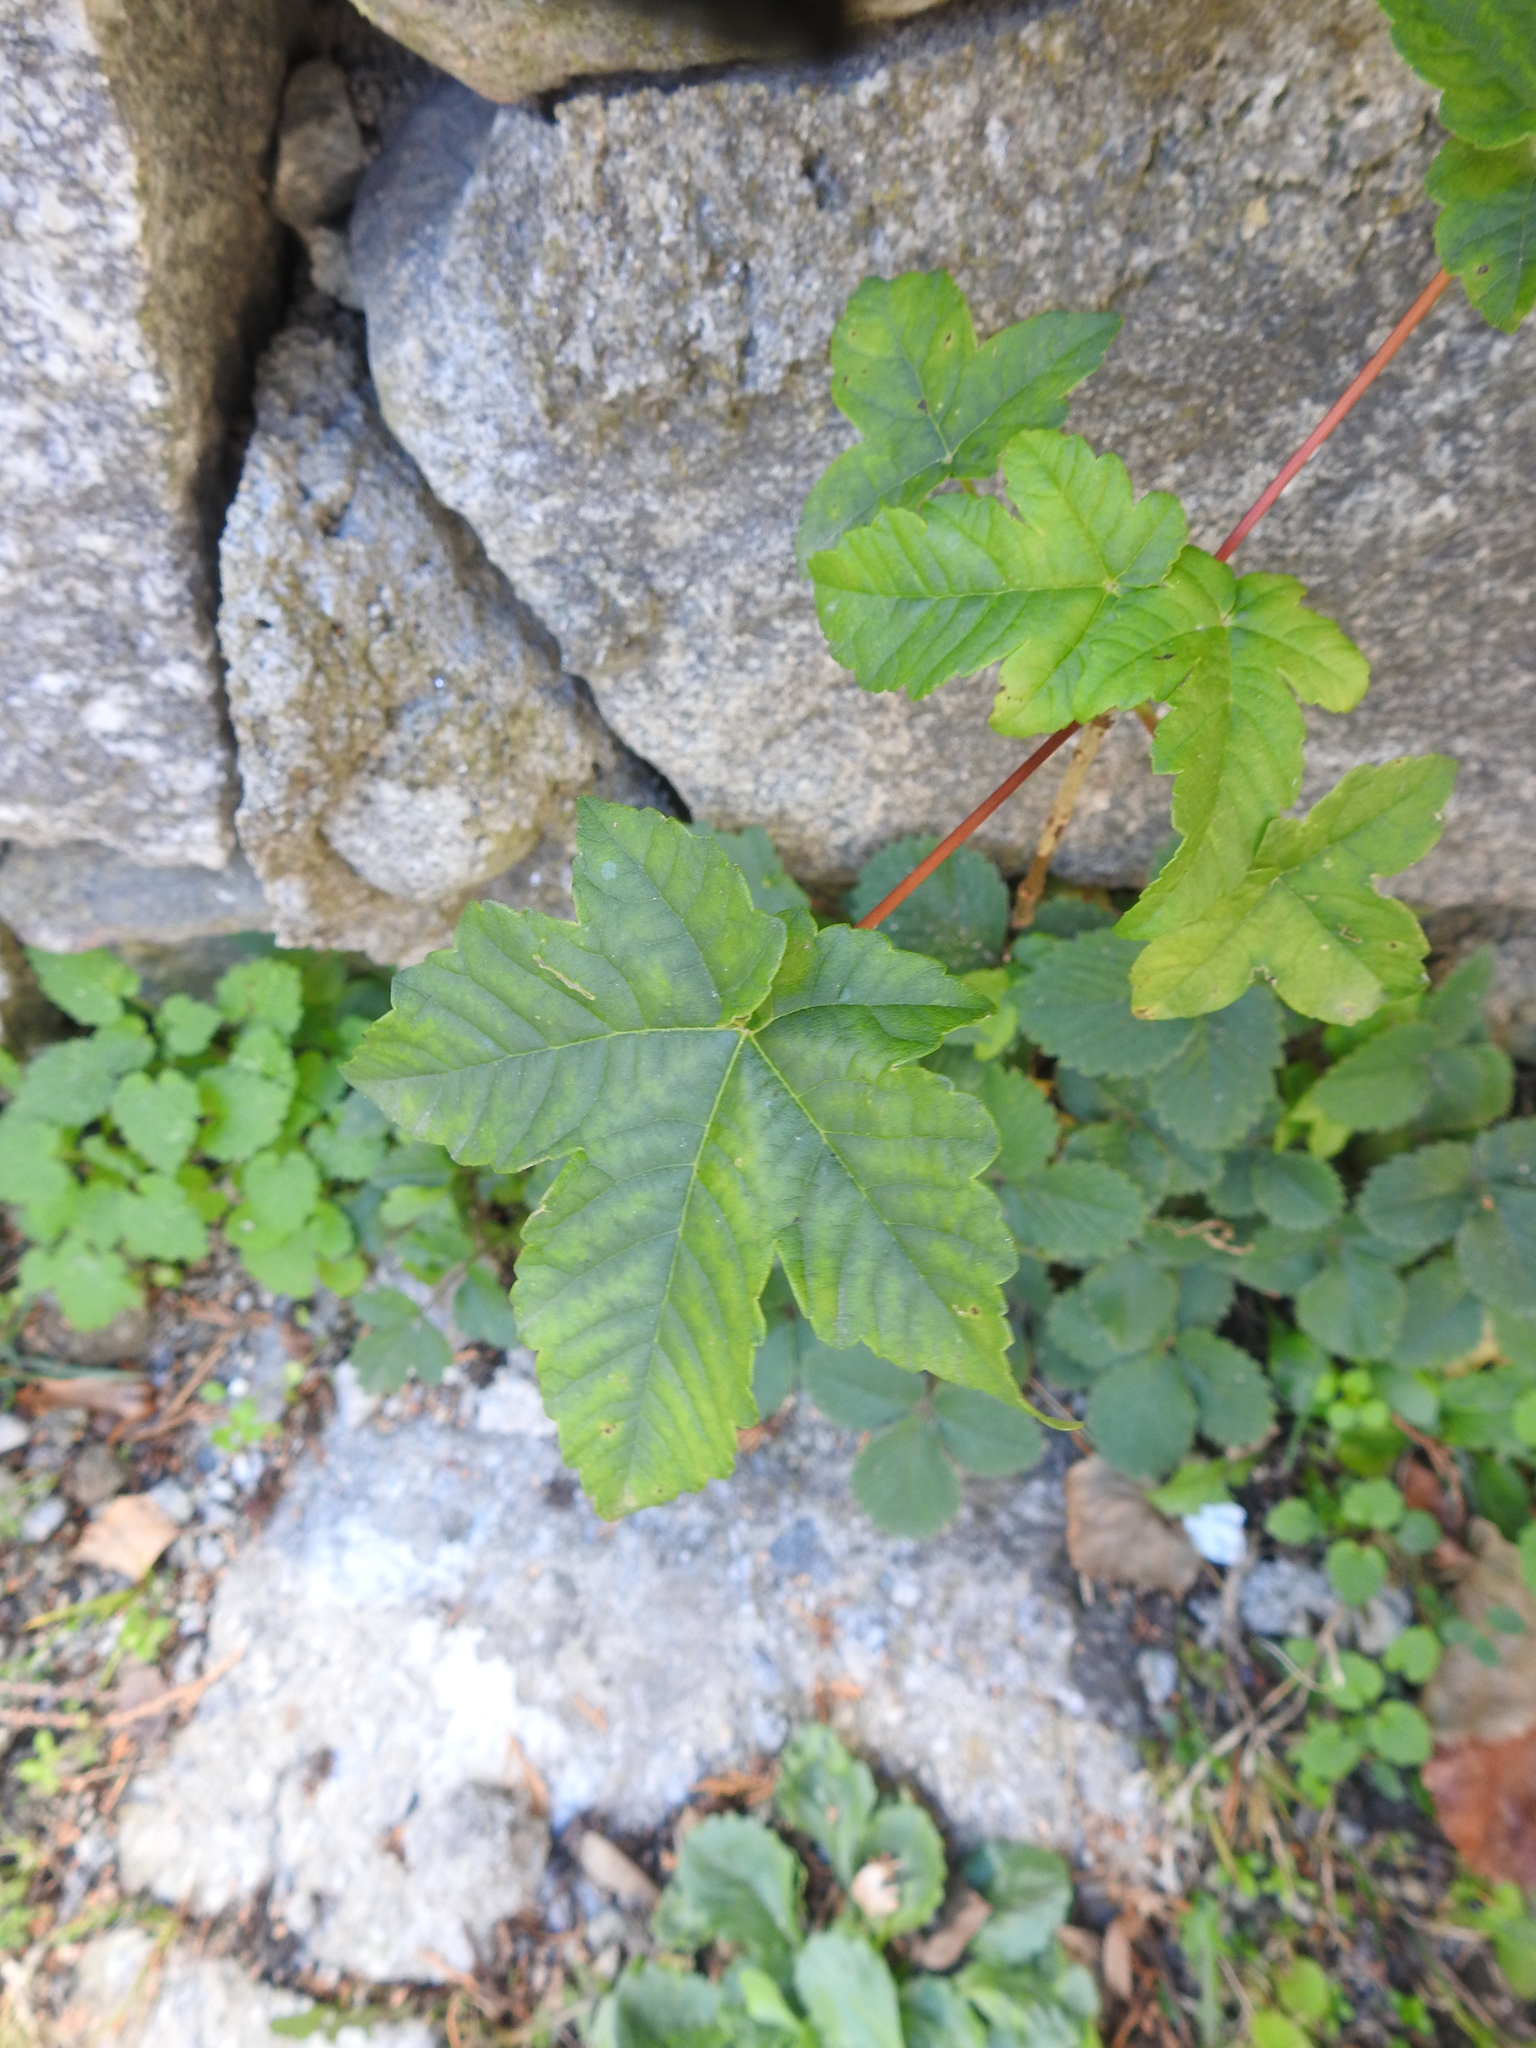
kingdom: Plantae
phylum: Tracheophyta
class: Magnoliopsida
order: Sapindales
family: Sapindaceae
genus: Acer
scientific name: Acer pseudoplatanus
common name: Sycamore
